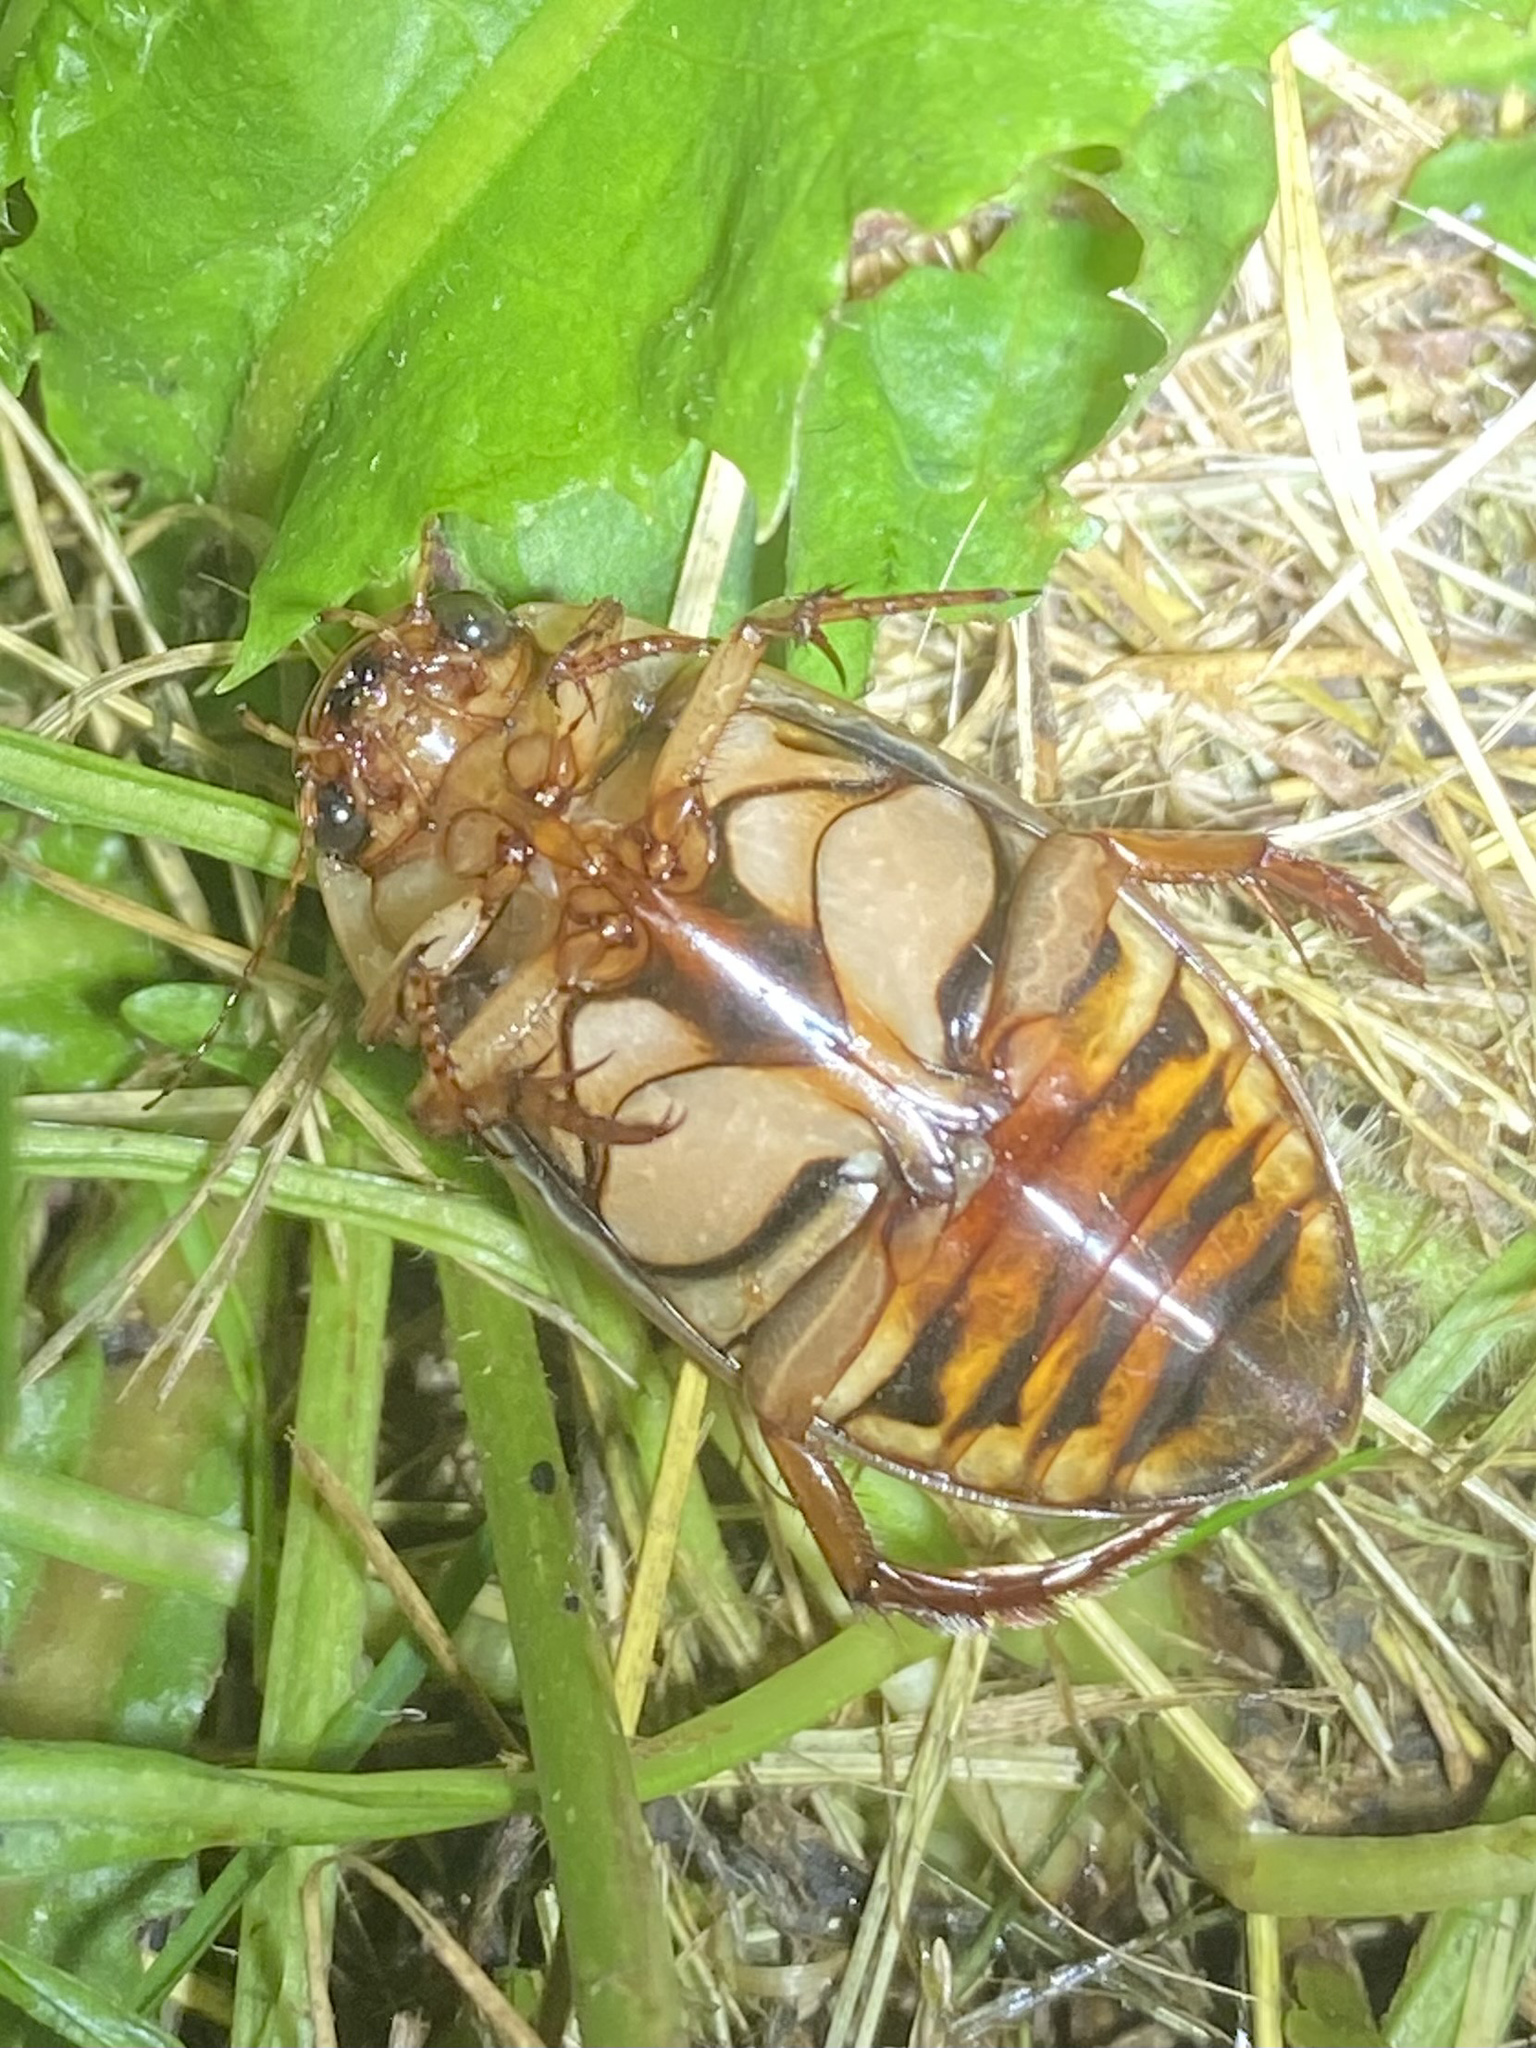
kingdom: Animalia
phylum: Arthropoda
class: Insecta
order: Coleoptera
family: Dytiscidae
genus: Dytiscus
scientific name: Dytiscus fasciventris
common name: Understriped diving beetle
